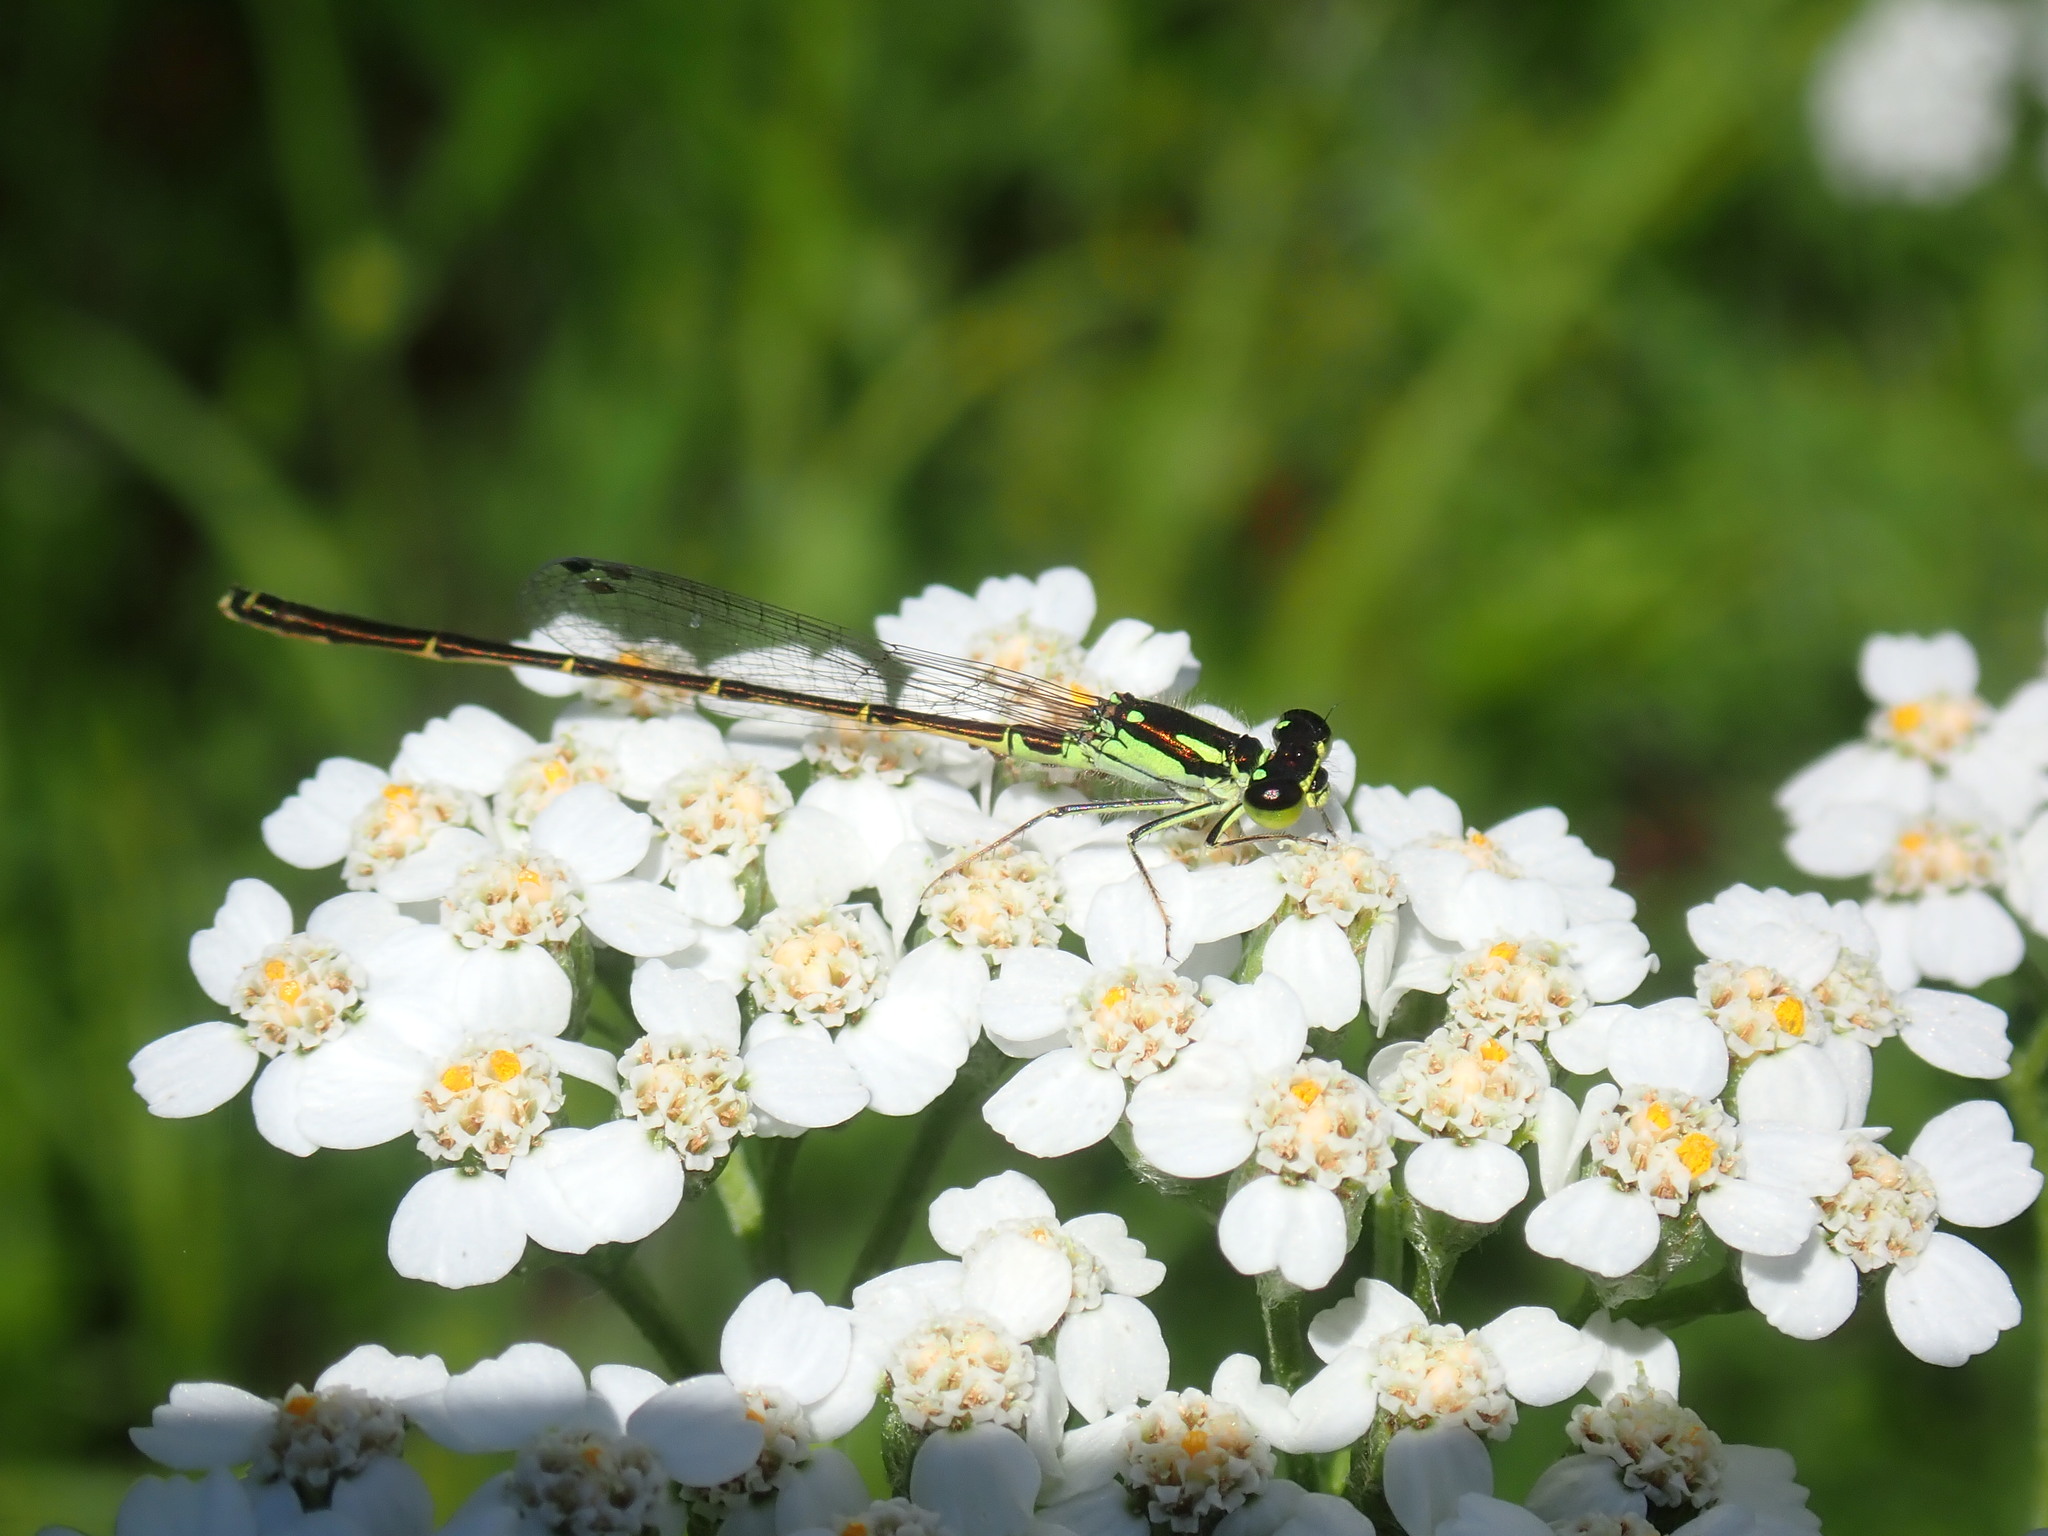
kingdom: Animalia
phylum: Arthropoda
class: Insecta
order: Odonata
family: Coenagrionidae
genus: Ischnura
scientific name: Ischnura posita
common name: Fragile forktail
